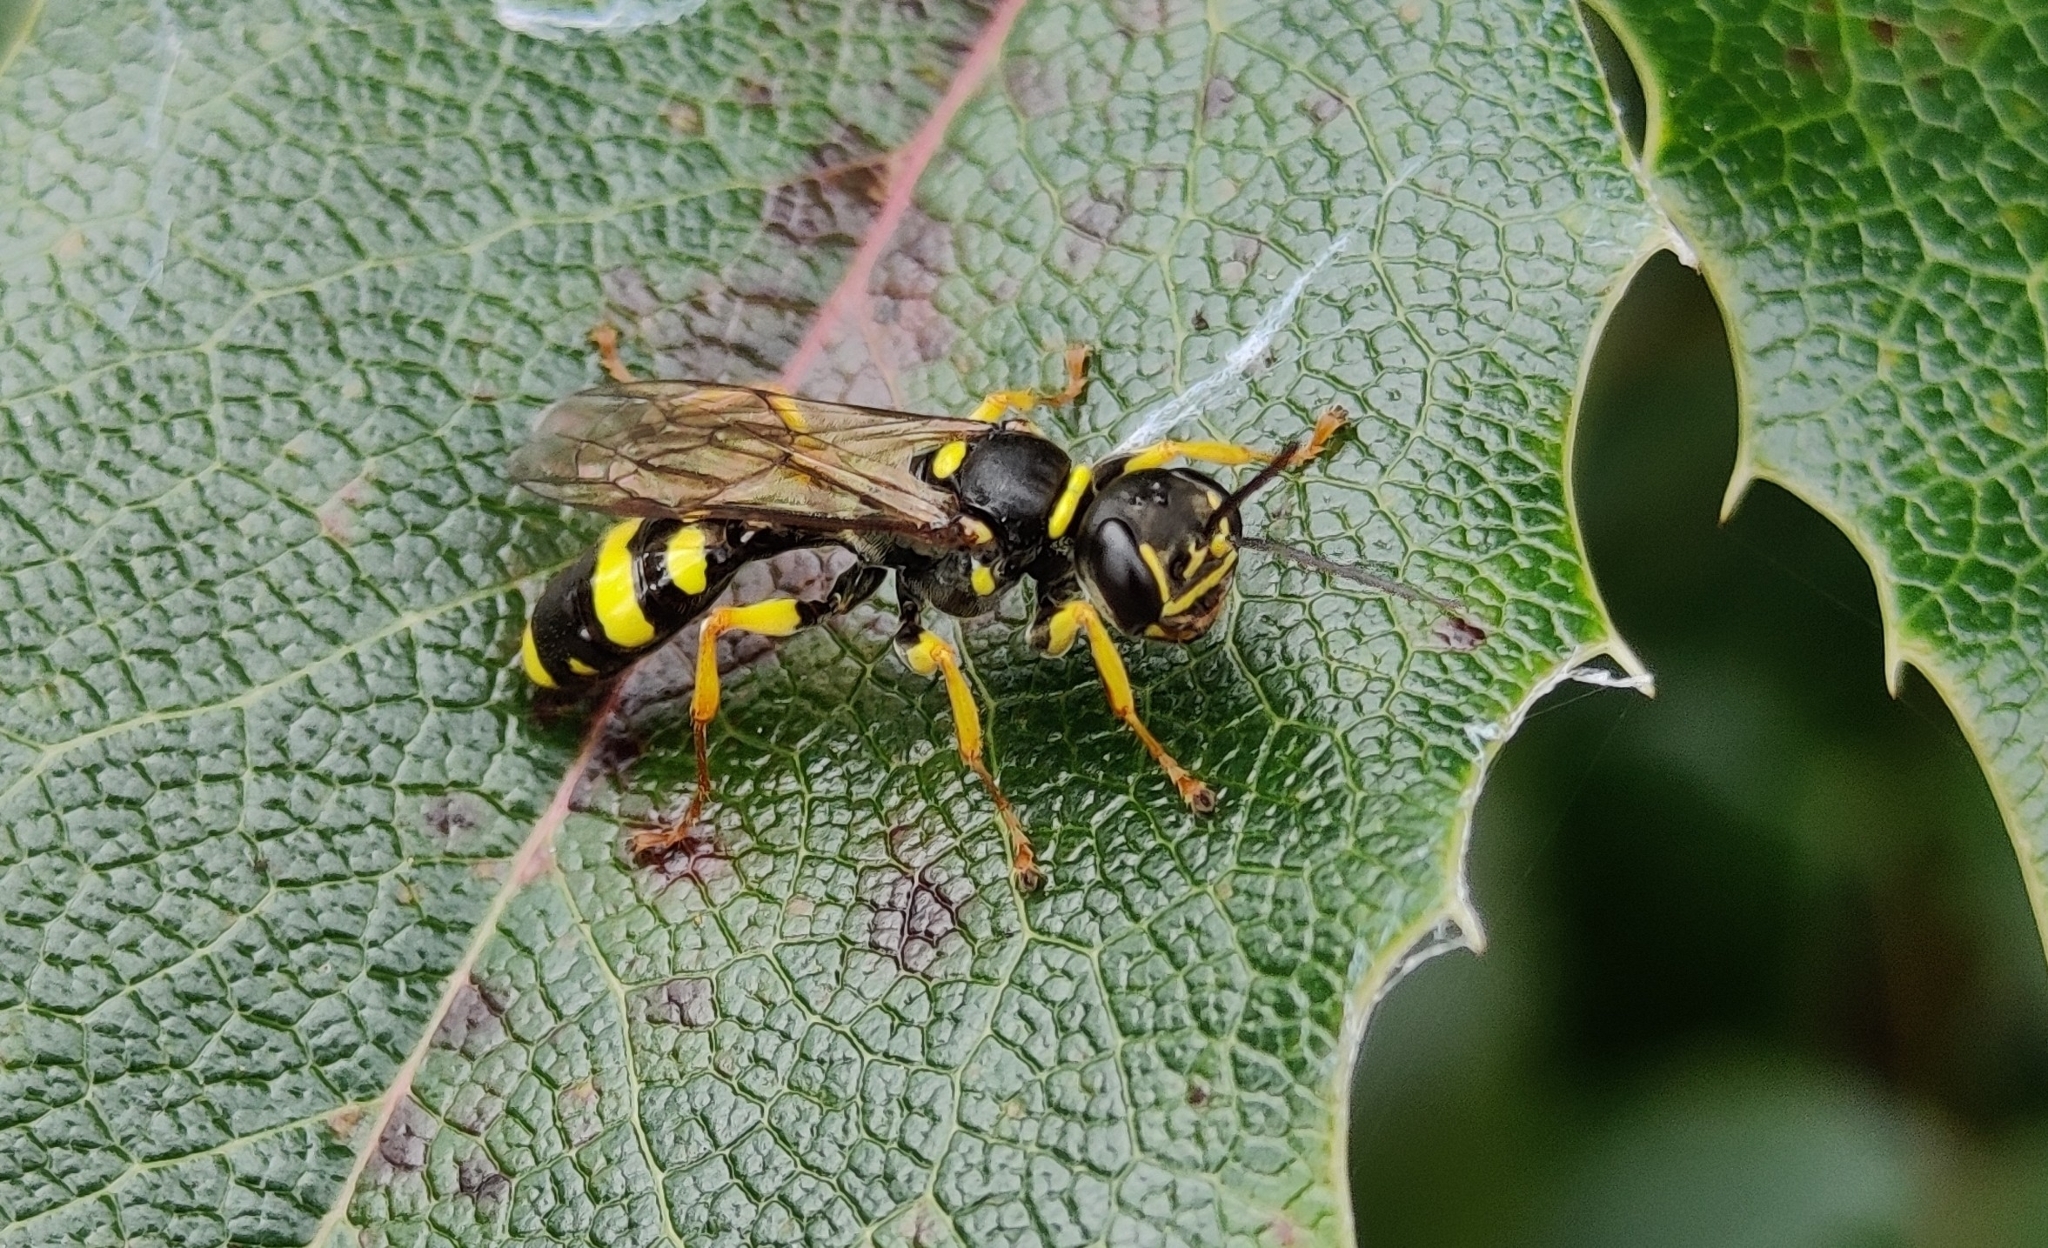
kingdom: Animalia
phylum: Arthropoda
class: Insecta
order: Hymenoptera
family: Crabronidae
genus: Mellinus
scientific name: Mellinus arvensis
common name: Field digger wasp
